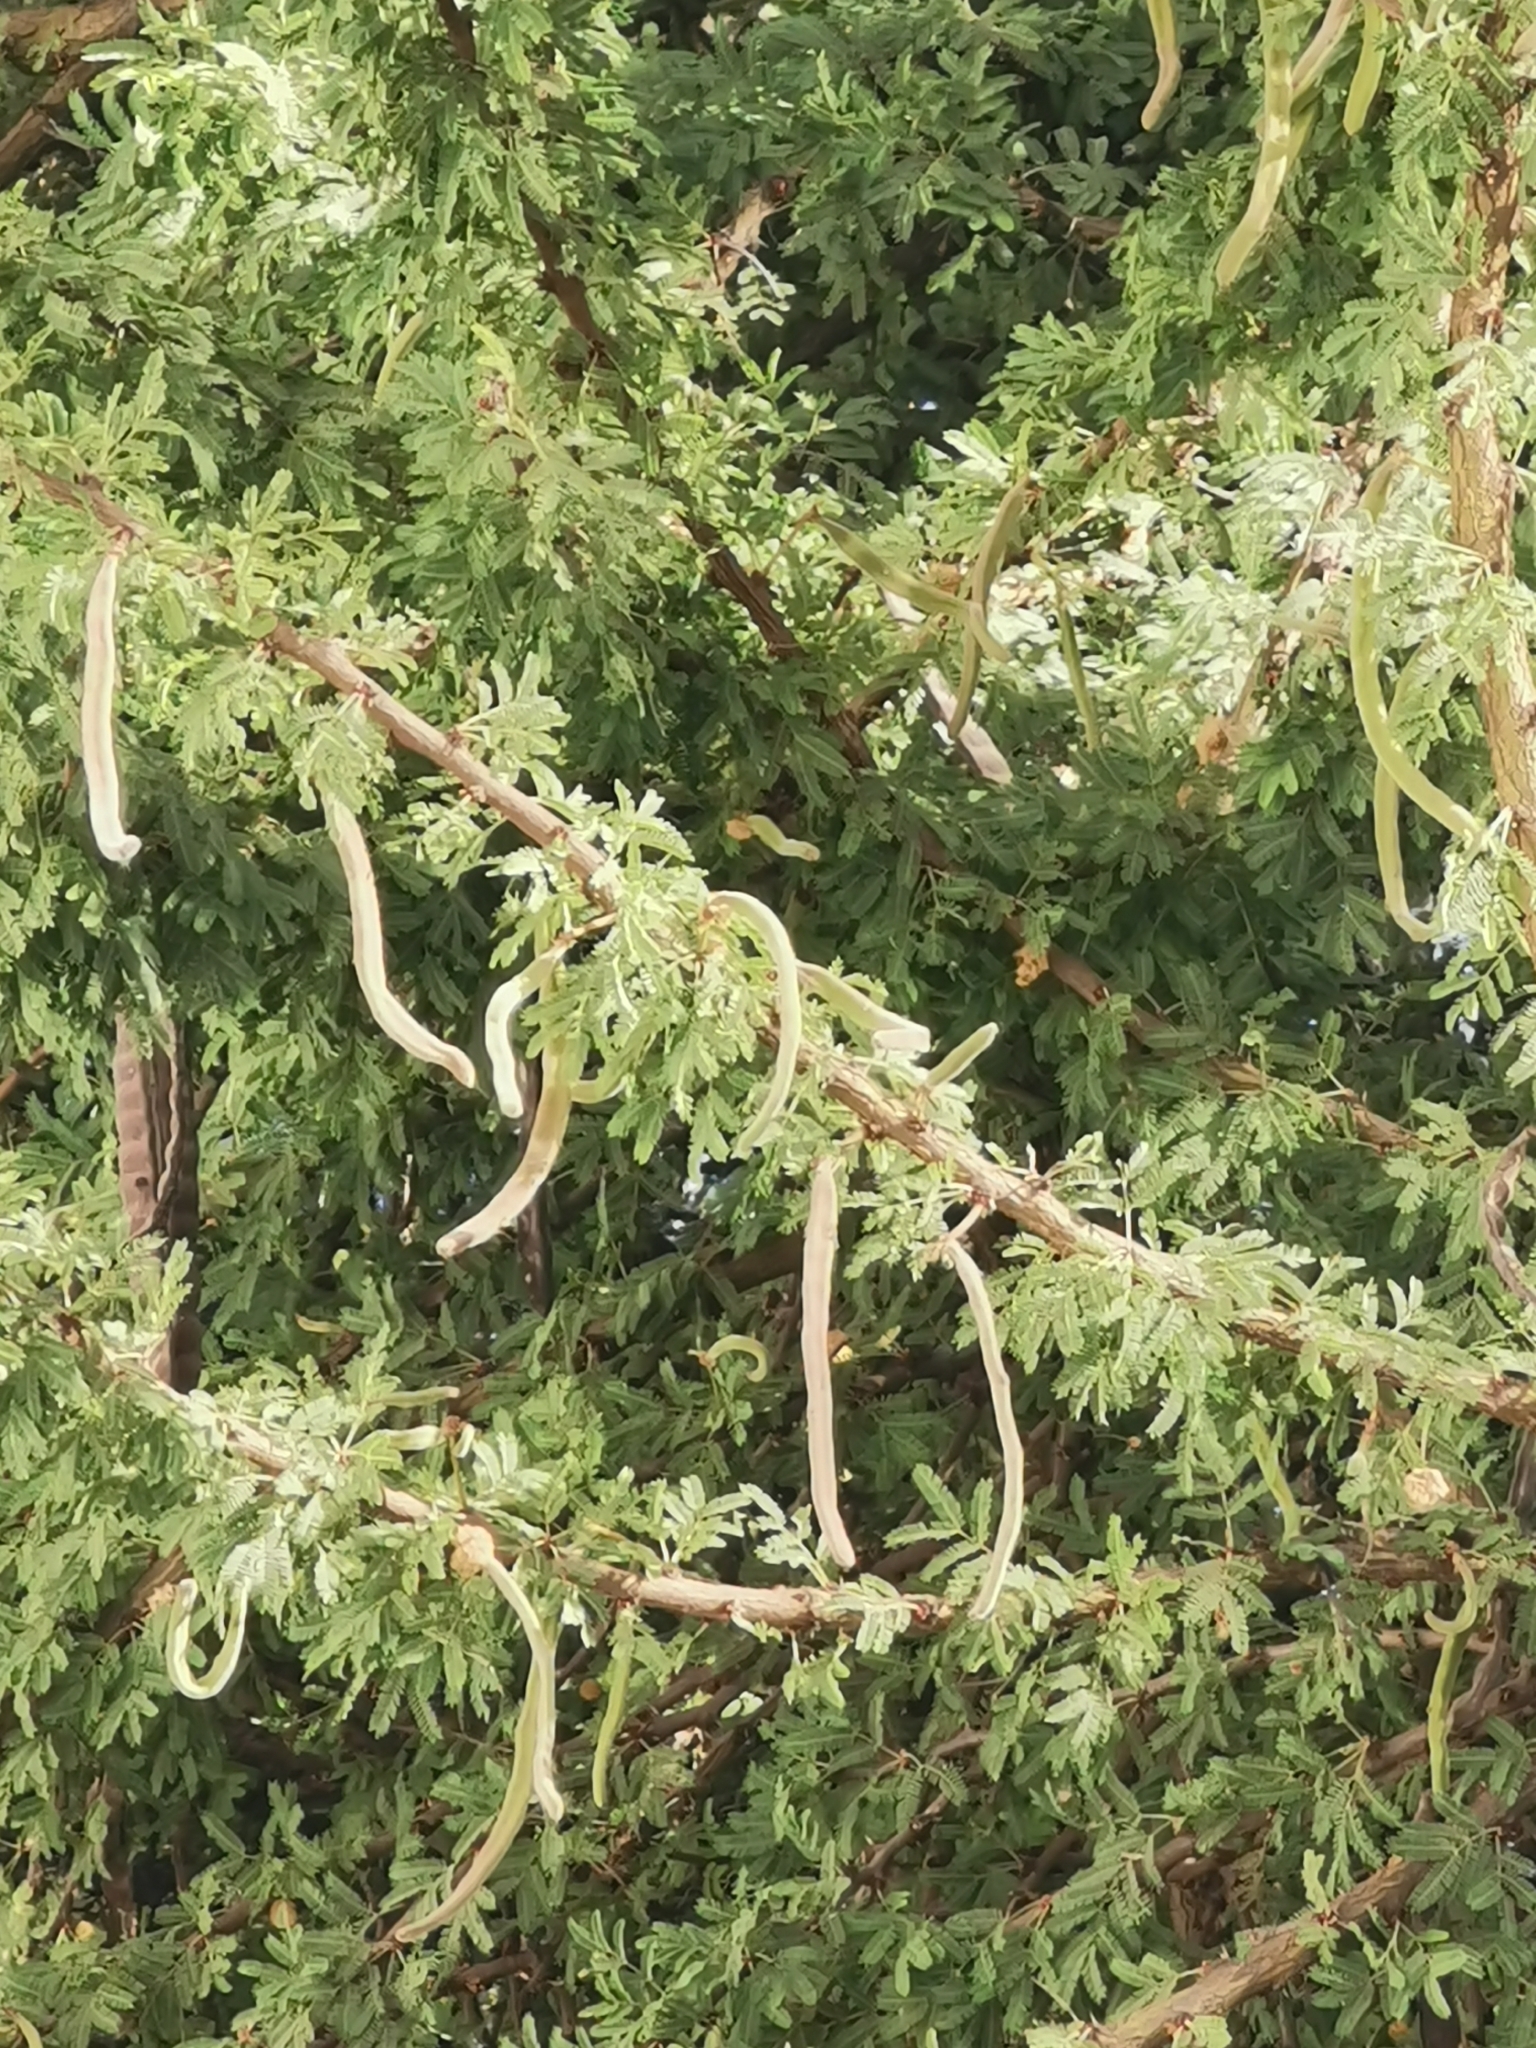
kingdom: Plantae
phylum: Tracheophyta
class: Magnoliopsida
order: Fabales
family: Fabaceae
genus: Vachellia
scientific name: Vachellia schaffneri
